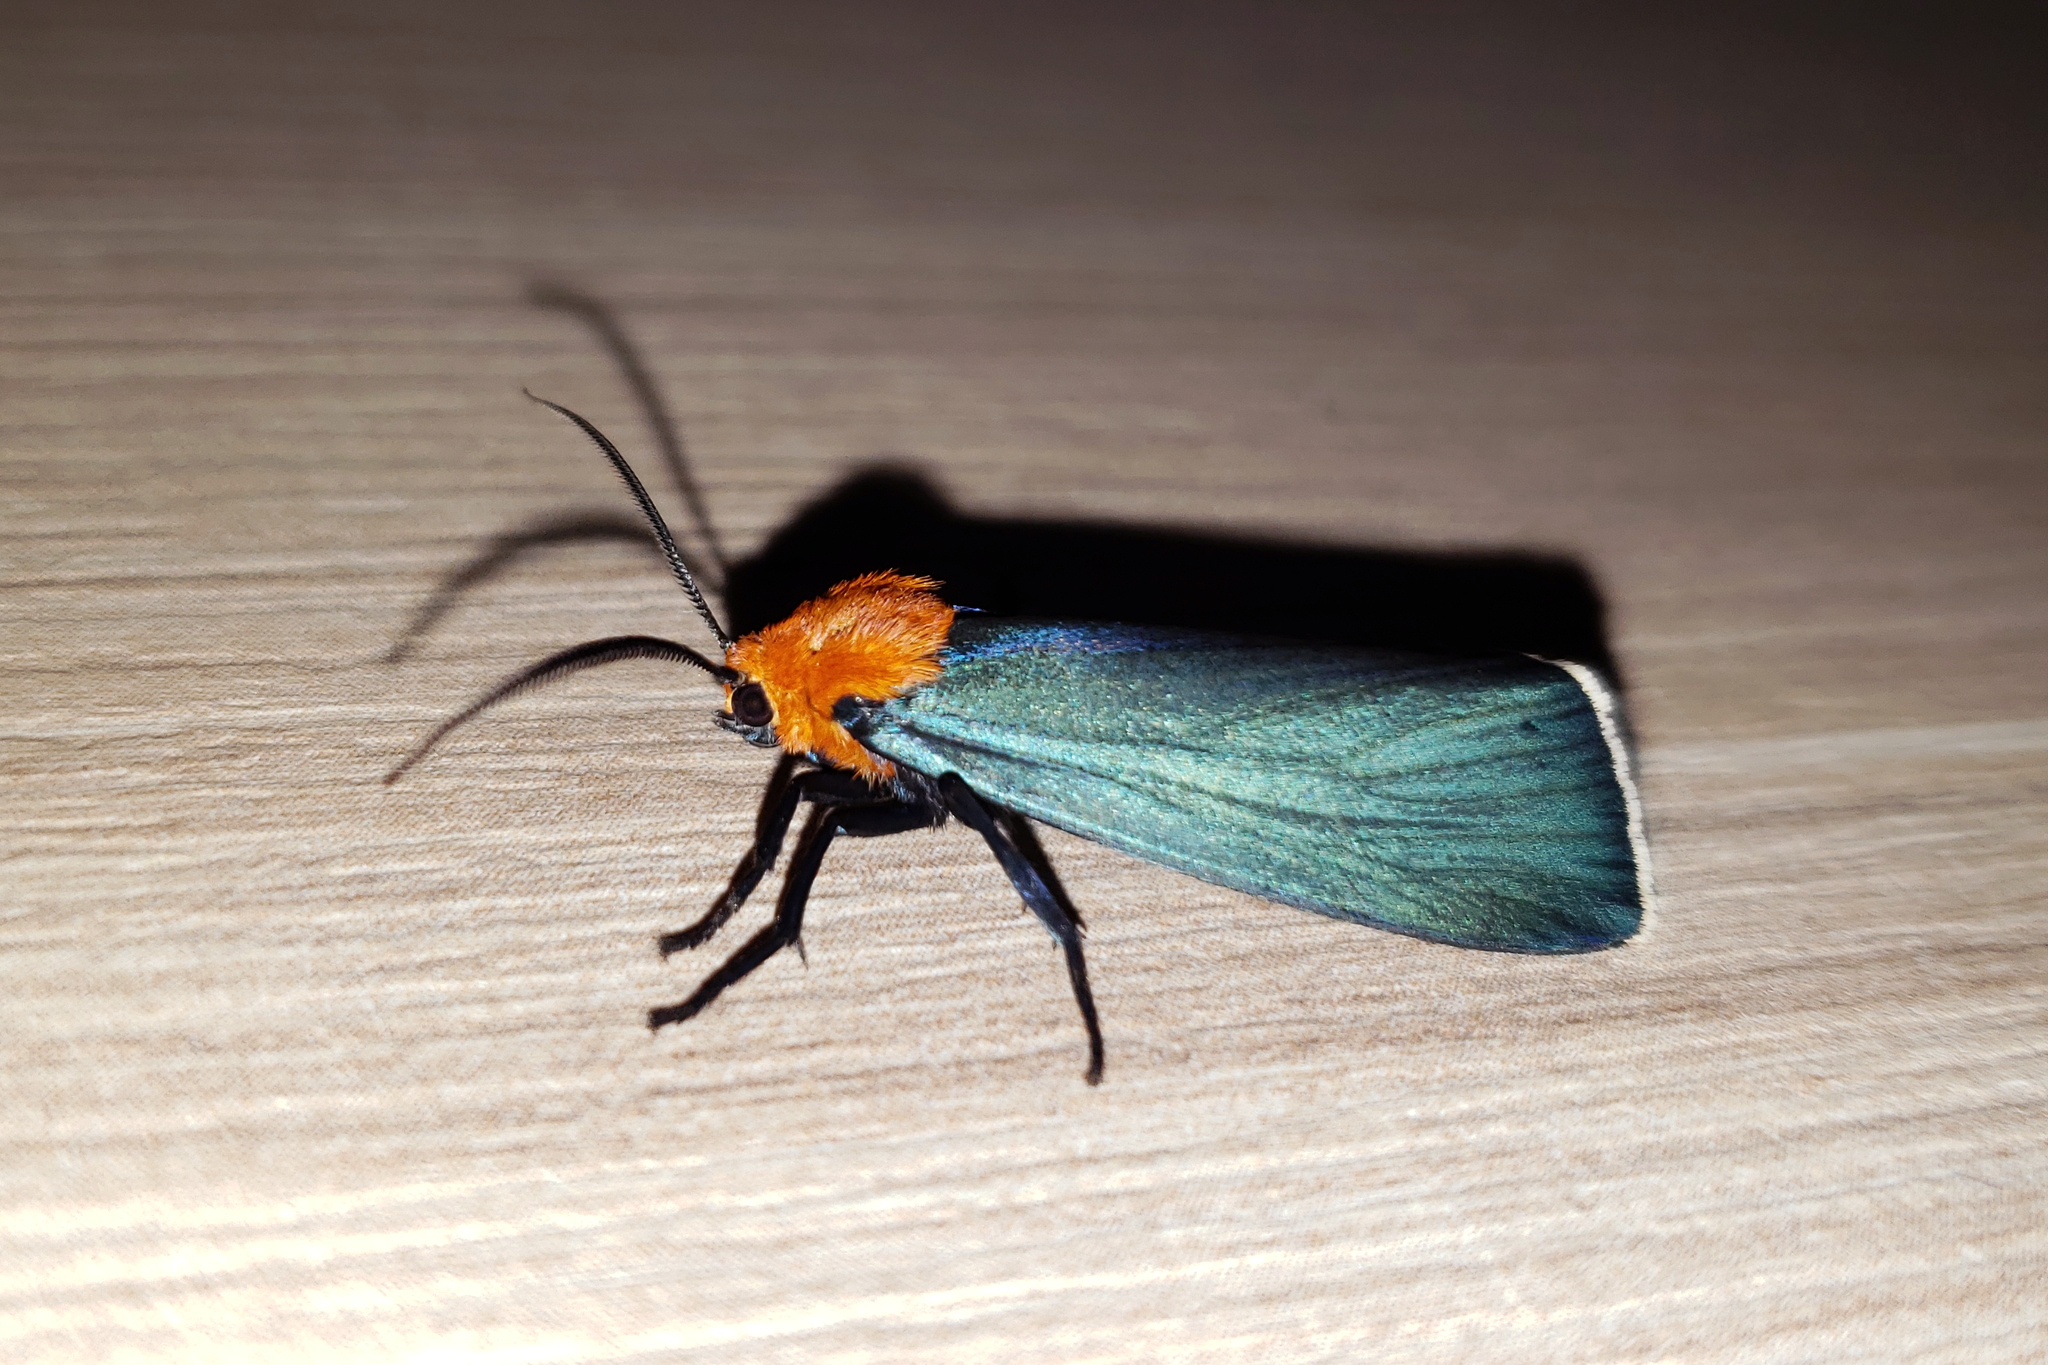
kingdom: Animalia
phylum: Arthropoda
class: Insecta
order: Lepidoptera
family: Erebidae
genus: Apistosia
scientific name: Apistosia judas
